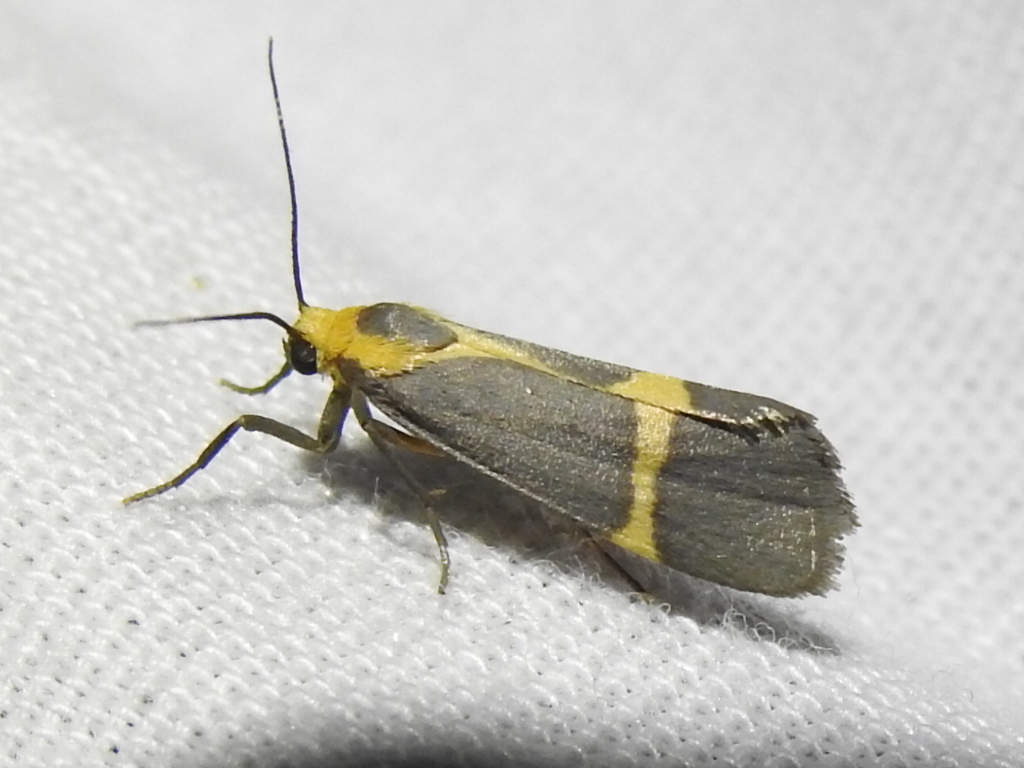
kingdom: Animalia
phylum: Arthropoda
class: Insecta
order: Lepidoptera
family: Erebidae
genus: Cisthene
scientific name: Cisthene tenuifascia
